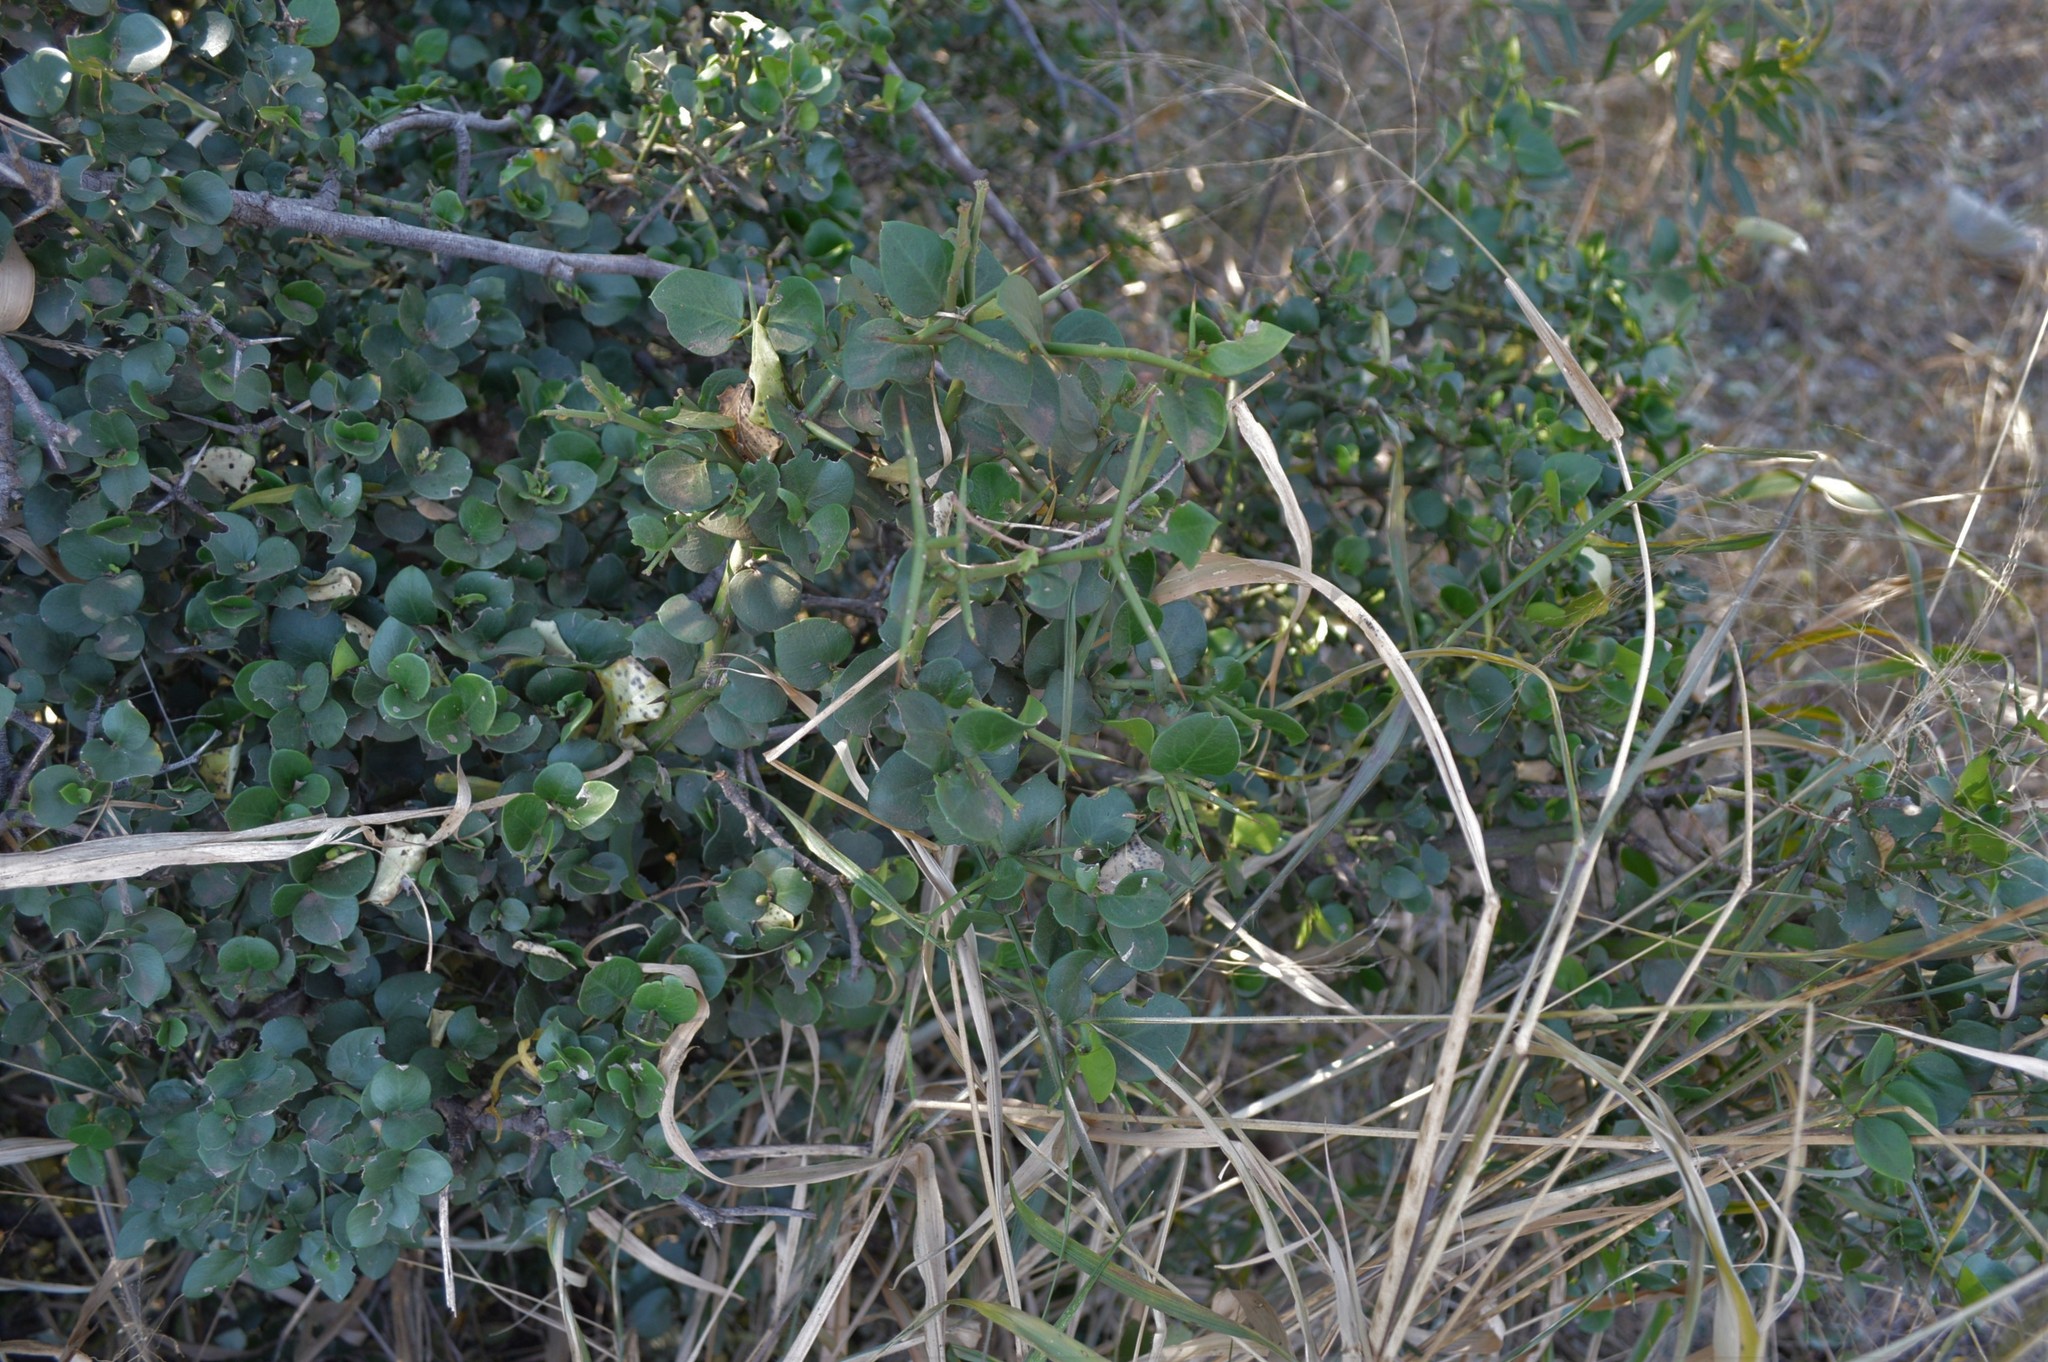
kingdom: Plantae
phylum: Tracheophyta
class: Magnoliopsida
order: Gentianales
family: Apocynaceae
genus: Carissa
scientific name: Carissa bispinosa
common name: Forest num-num
